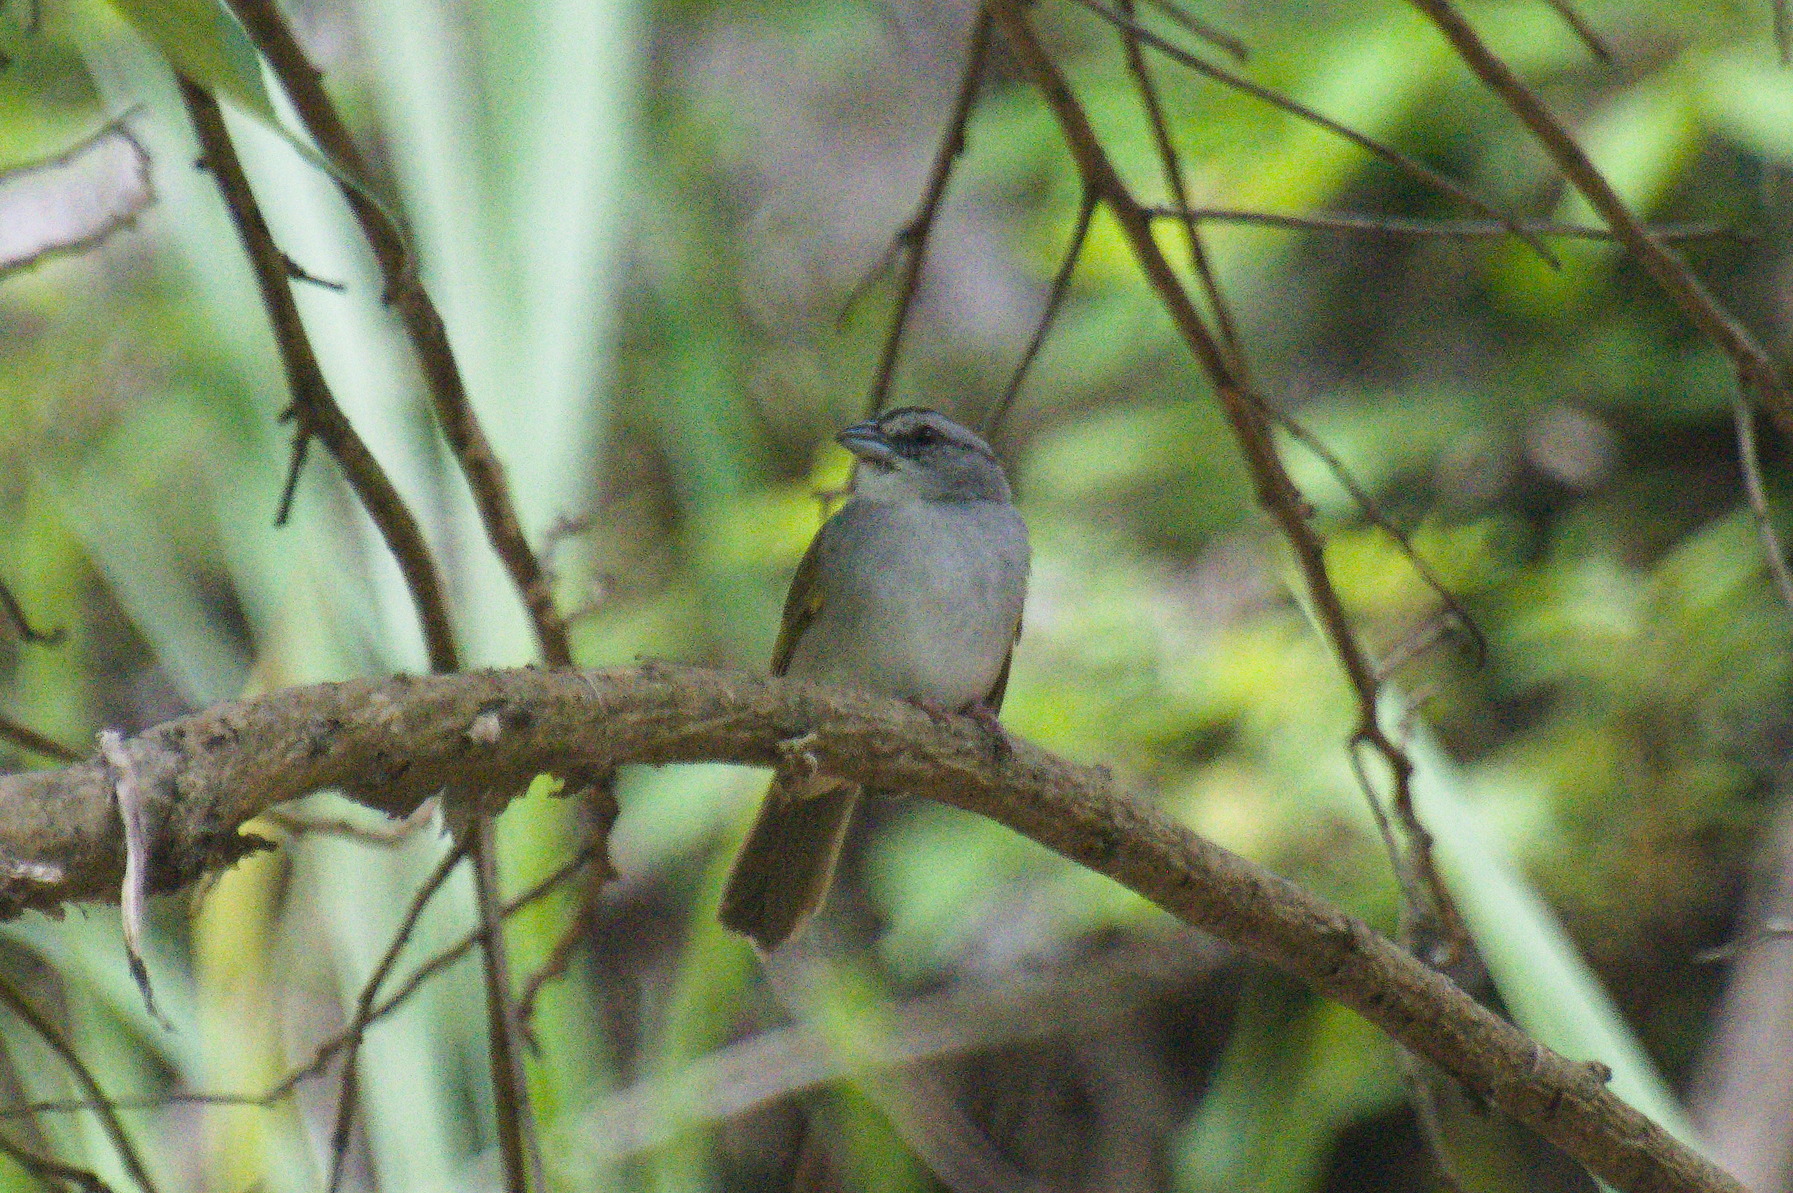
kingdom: Animalia
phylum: Chordata
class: Aves
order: Passeriformes
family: Passerellidae
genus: Arremonops
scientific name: Arremonops conirostris
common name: Black-striped sparrow
